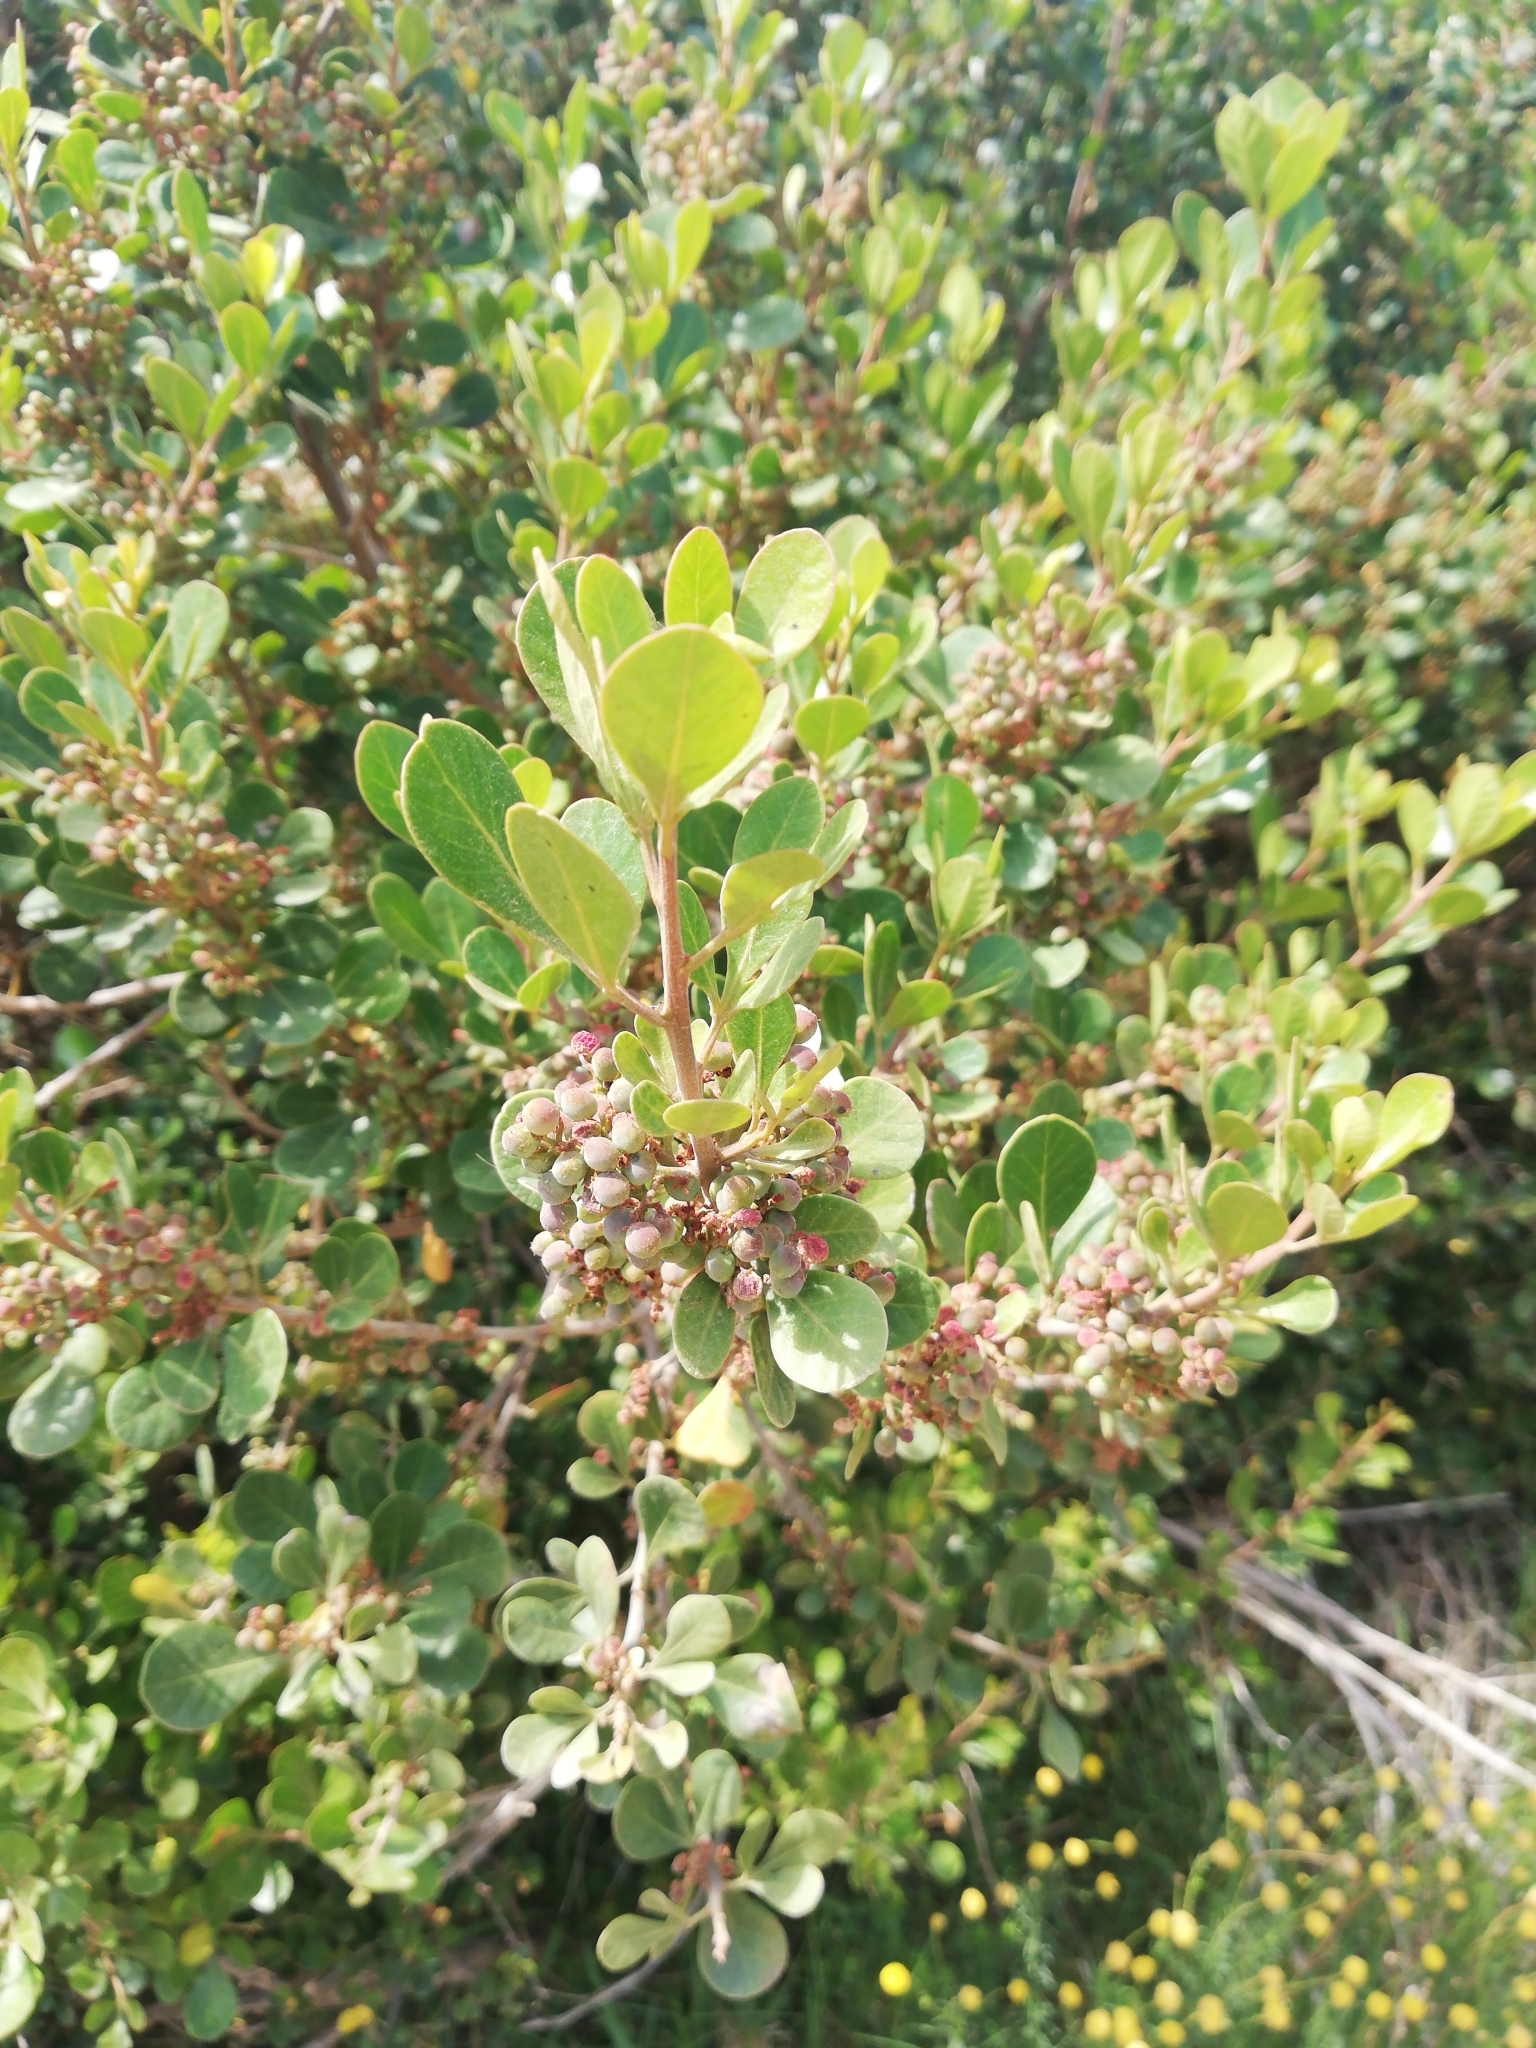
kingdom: Plantae
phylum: Tracheophyta
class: Magnoliopsida
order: Sapindales
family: Anacardiaceae
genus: Searsia
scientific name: Searsia lucida
